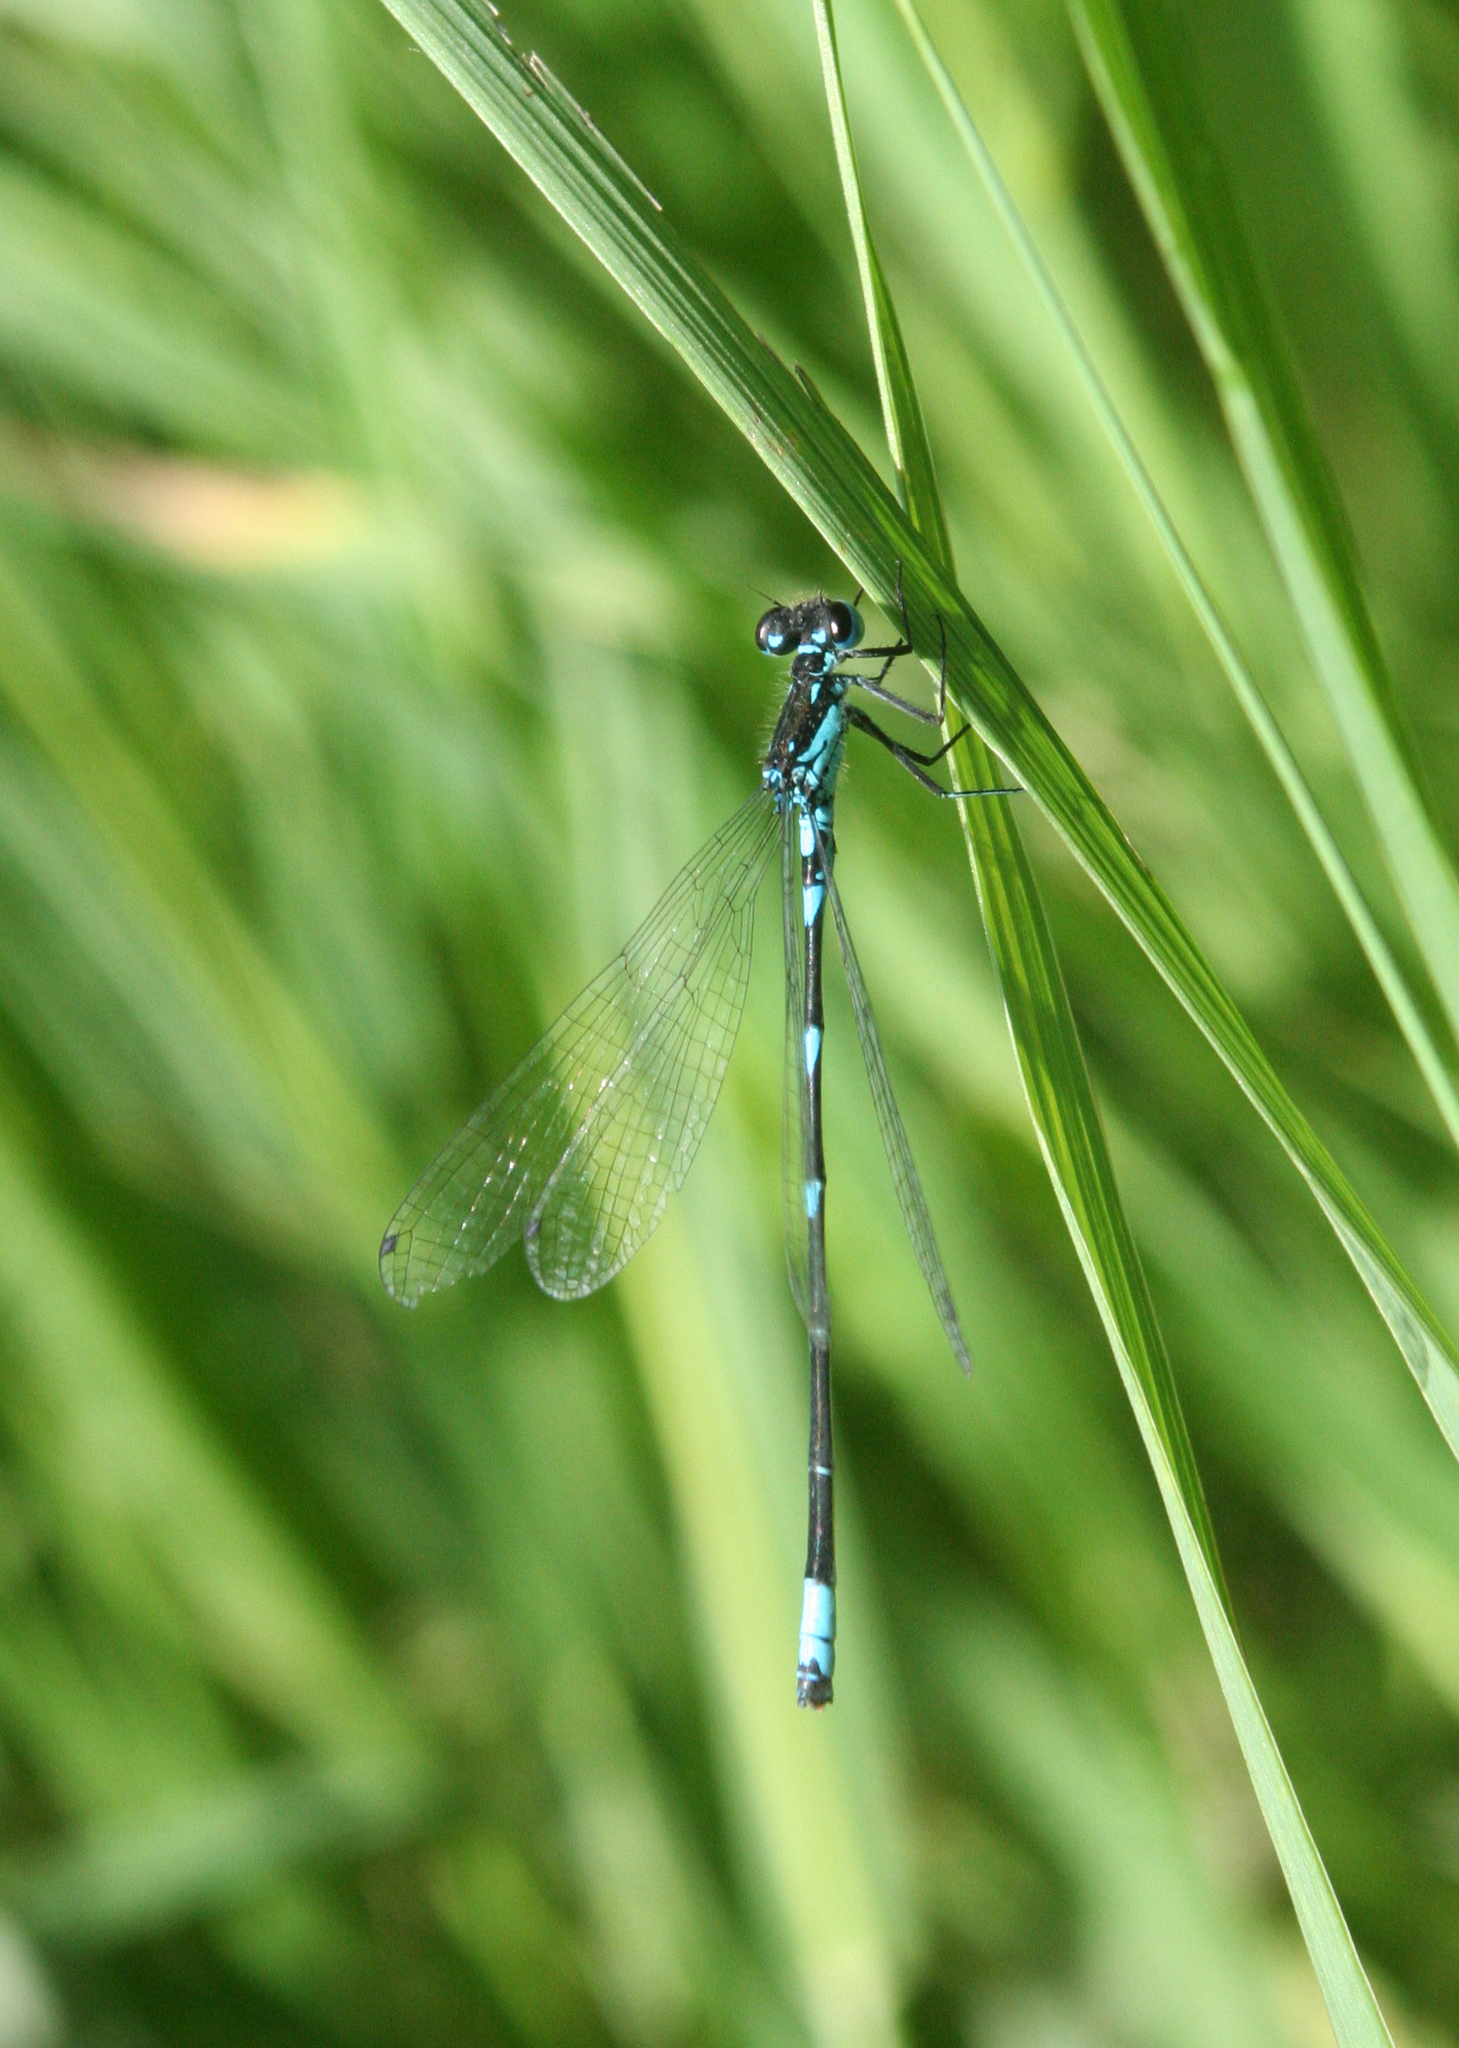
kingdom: Animalia
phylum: Arthropoda
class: Insecta
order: Odonata
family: Coenagrionidae
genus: Coenagrion
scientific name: Coenagrion pulchellum
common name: Variable bluet
